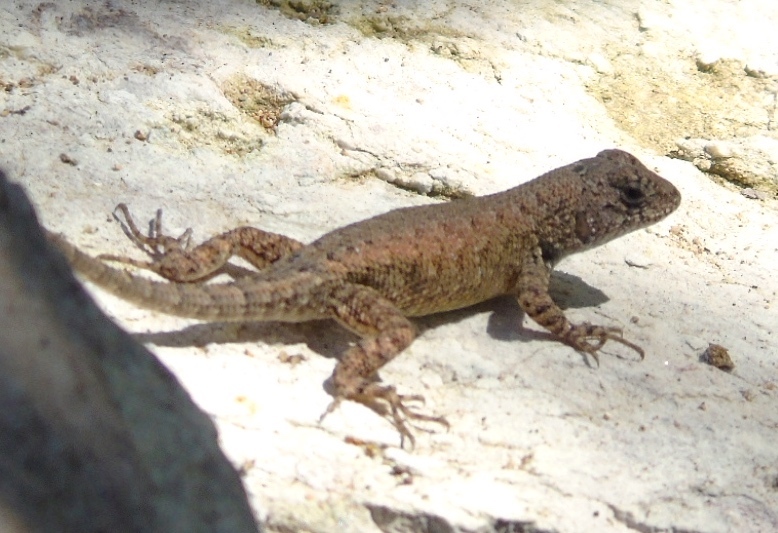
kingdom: Animalia
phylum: Chordata
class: Squamata
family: Phrynosomatidae
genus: Sceloporus
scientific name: Sceloporus nelsoni
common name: Nelson's spiny lizard
